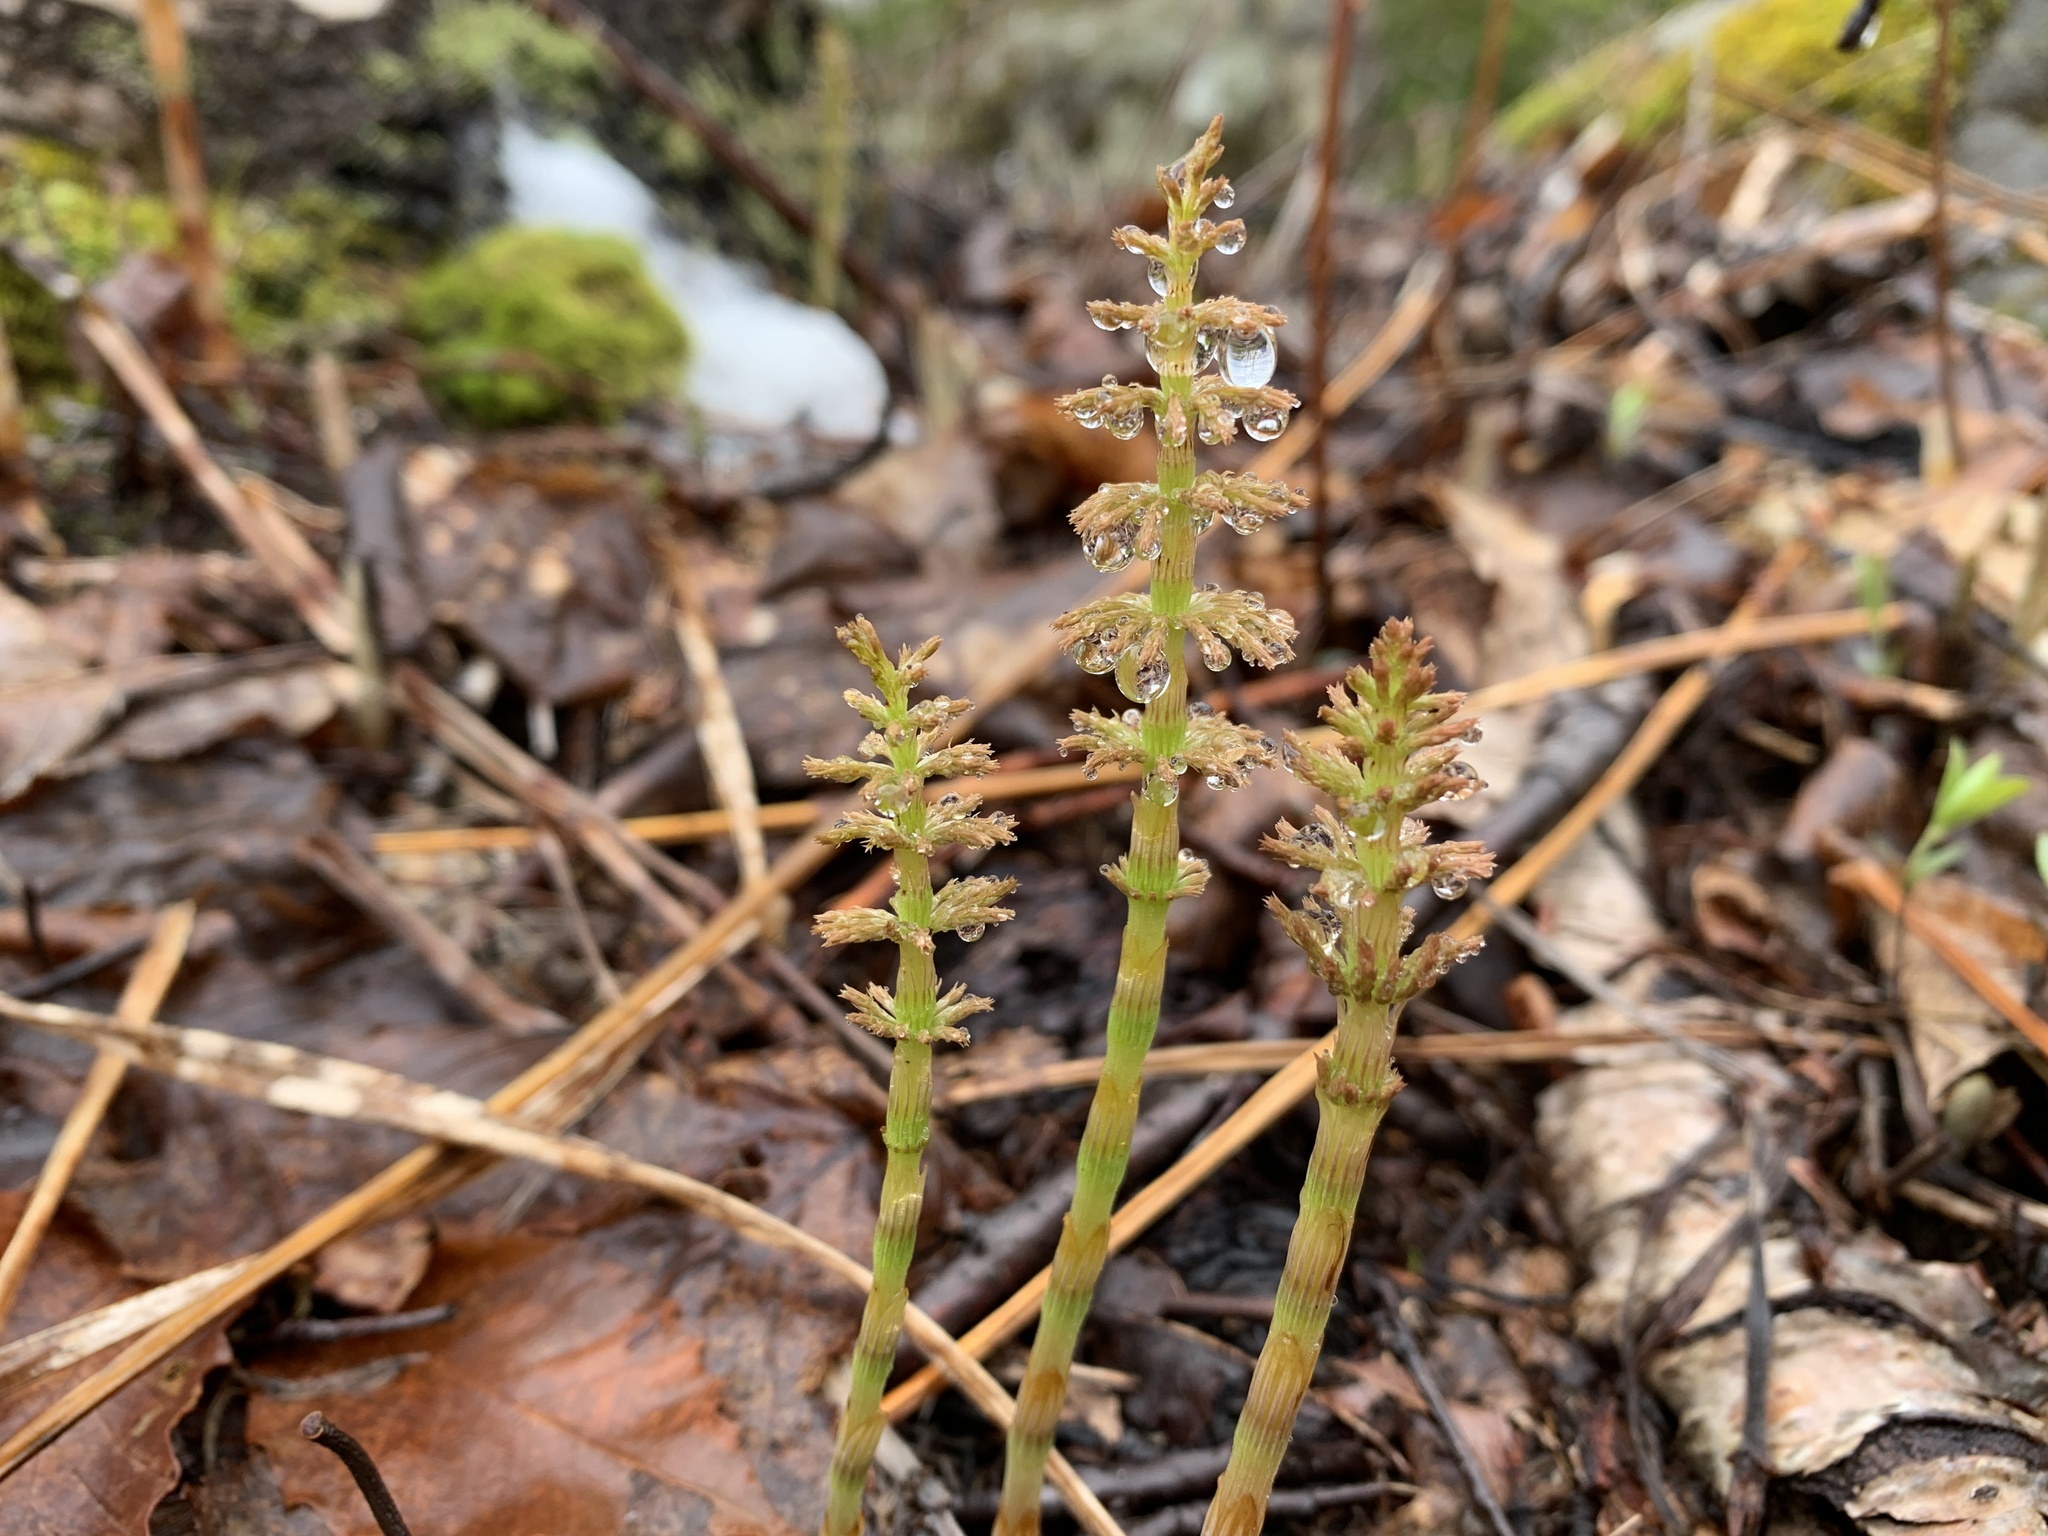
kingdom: Plantae
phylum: Tracheophyta
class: Polypodiopsida
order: Equisetales
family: Equisetaceae
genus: Equisetum
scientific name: Equisetum sylvaticum
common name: Wood horsetail
